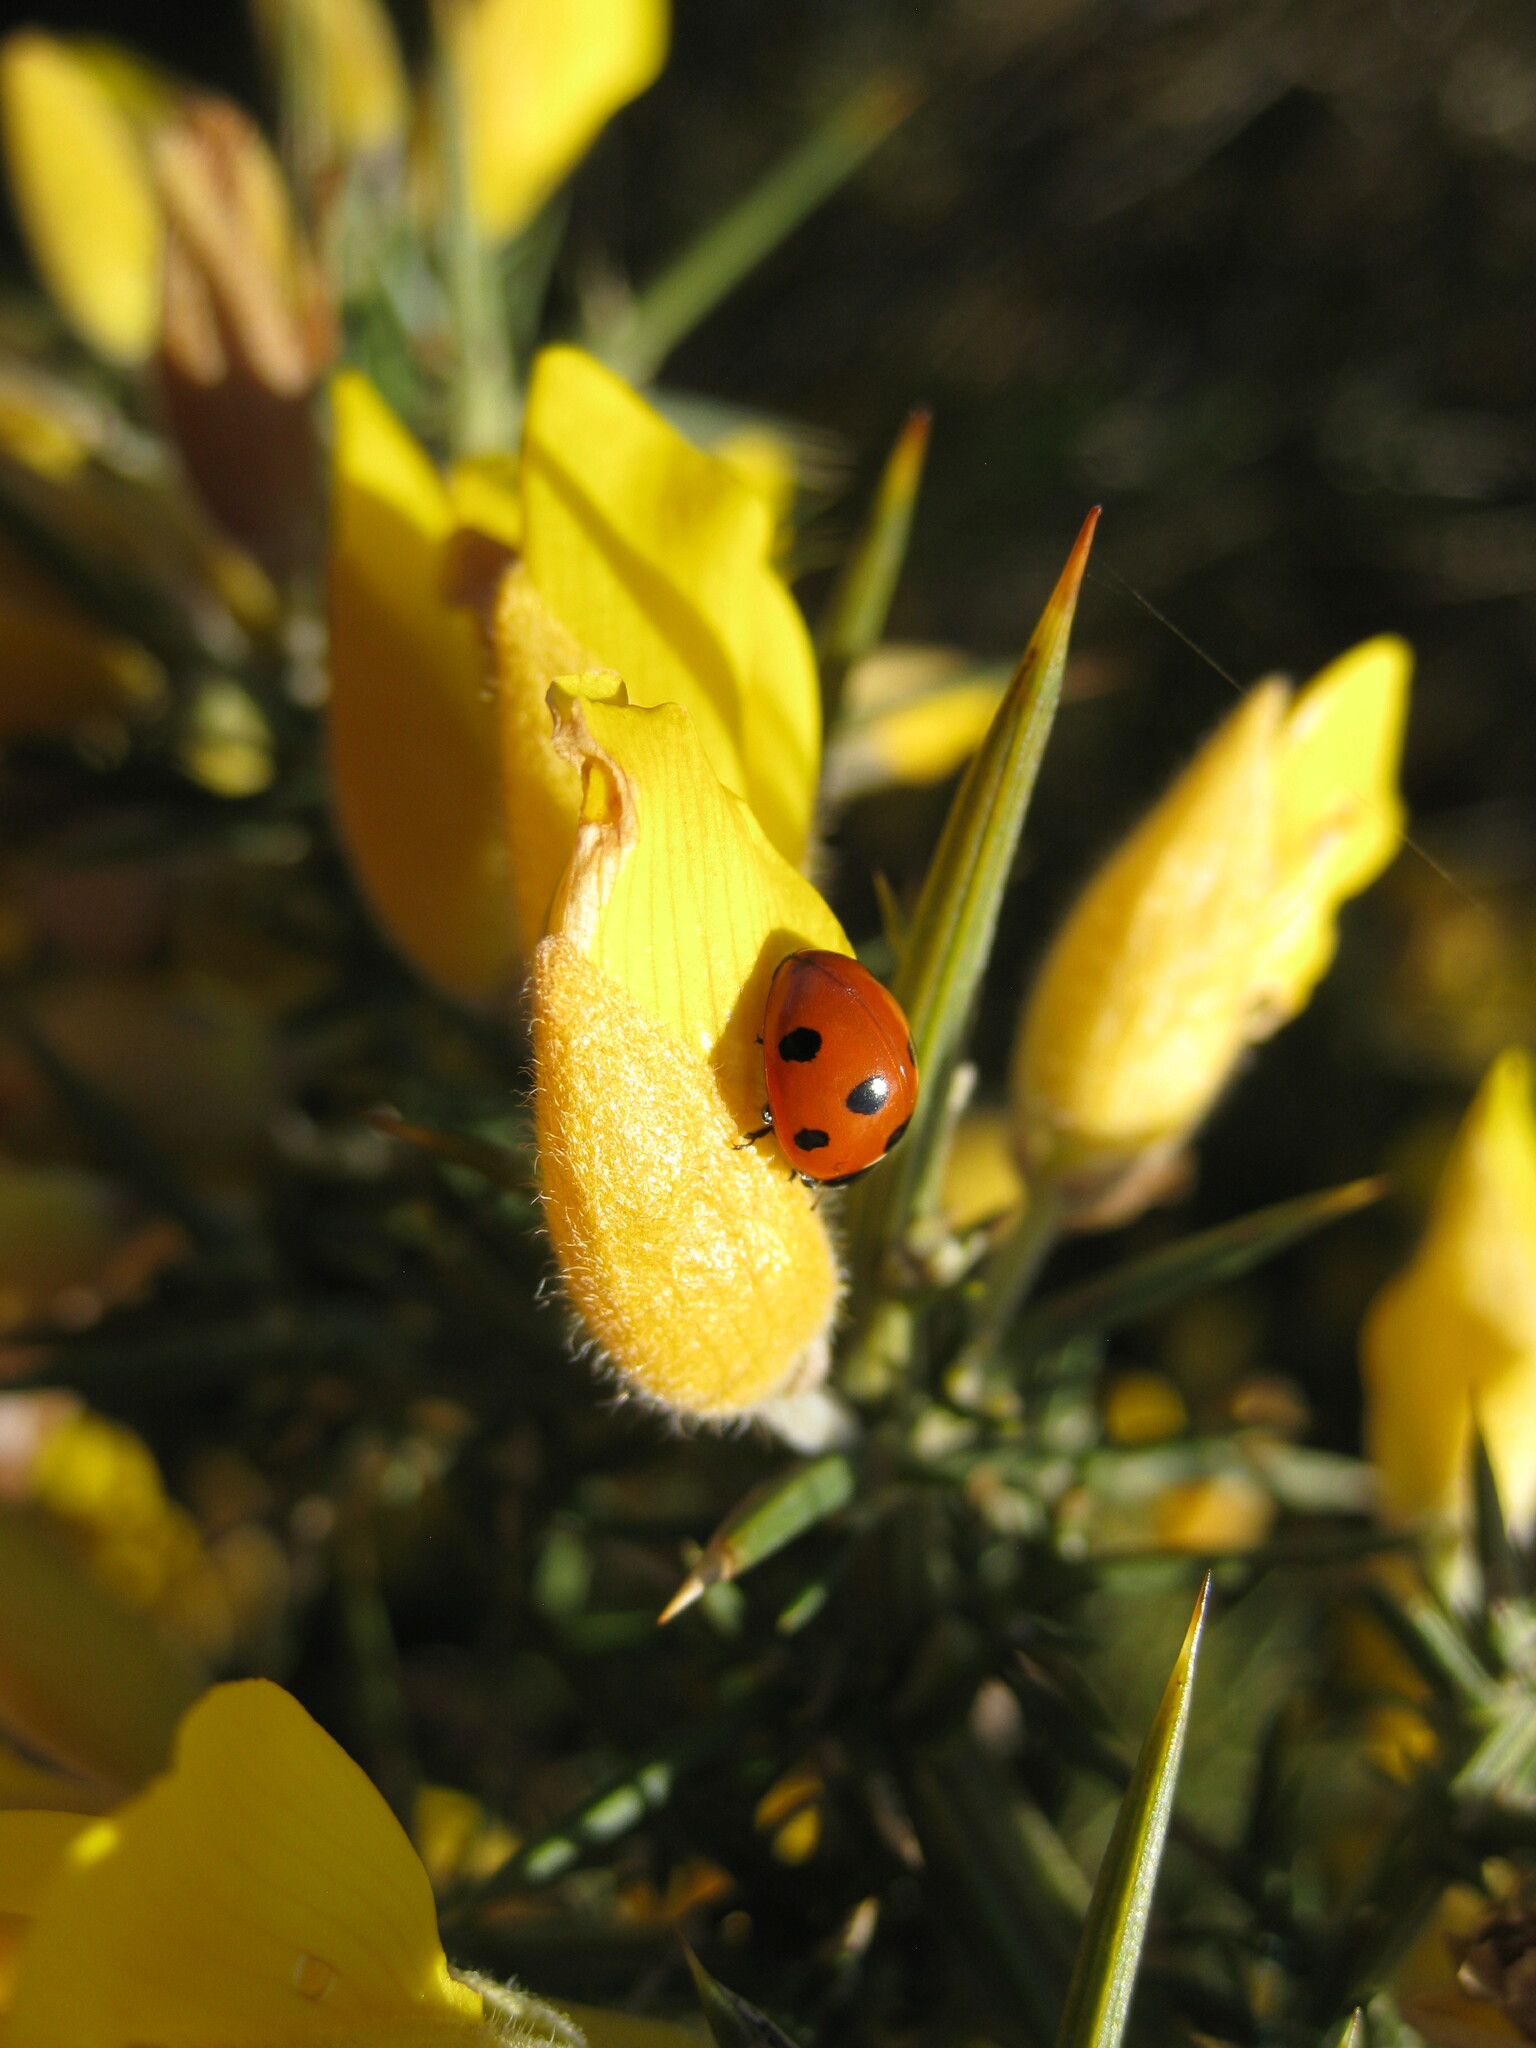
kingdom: Animalia
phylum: Arthropoda
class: Insecta
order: Coleoptera
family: Coccinellidae
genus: Coccinella
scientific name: Coccinella septempunctata
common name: Sevenspotted lady beetle
